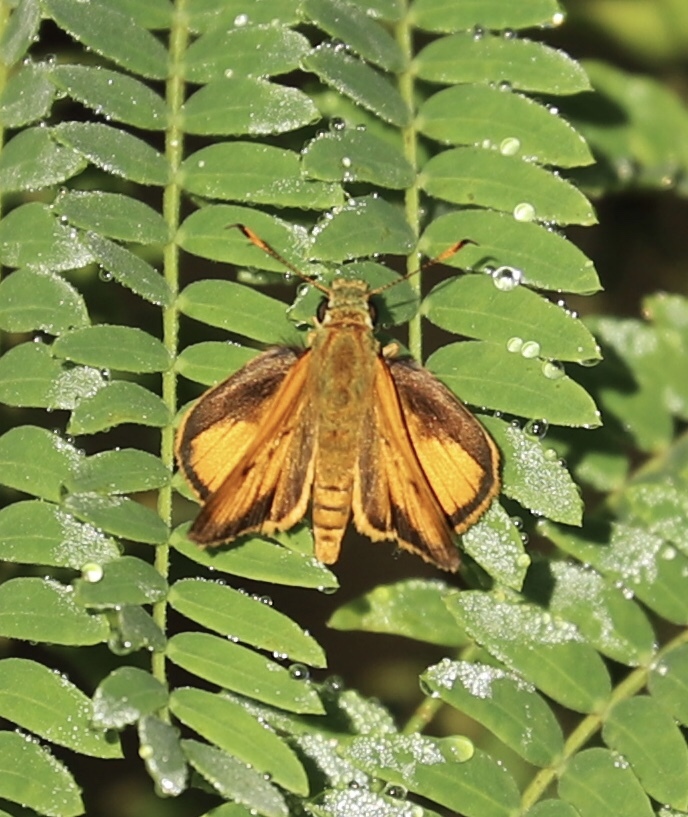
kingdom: Animalia
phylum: Arthropoda
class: Insecta
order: Lepidoptera
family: Hesperiidae
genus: Choranthus
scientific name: Choranthus haitensis
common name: Haitian skipper
